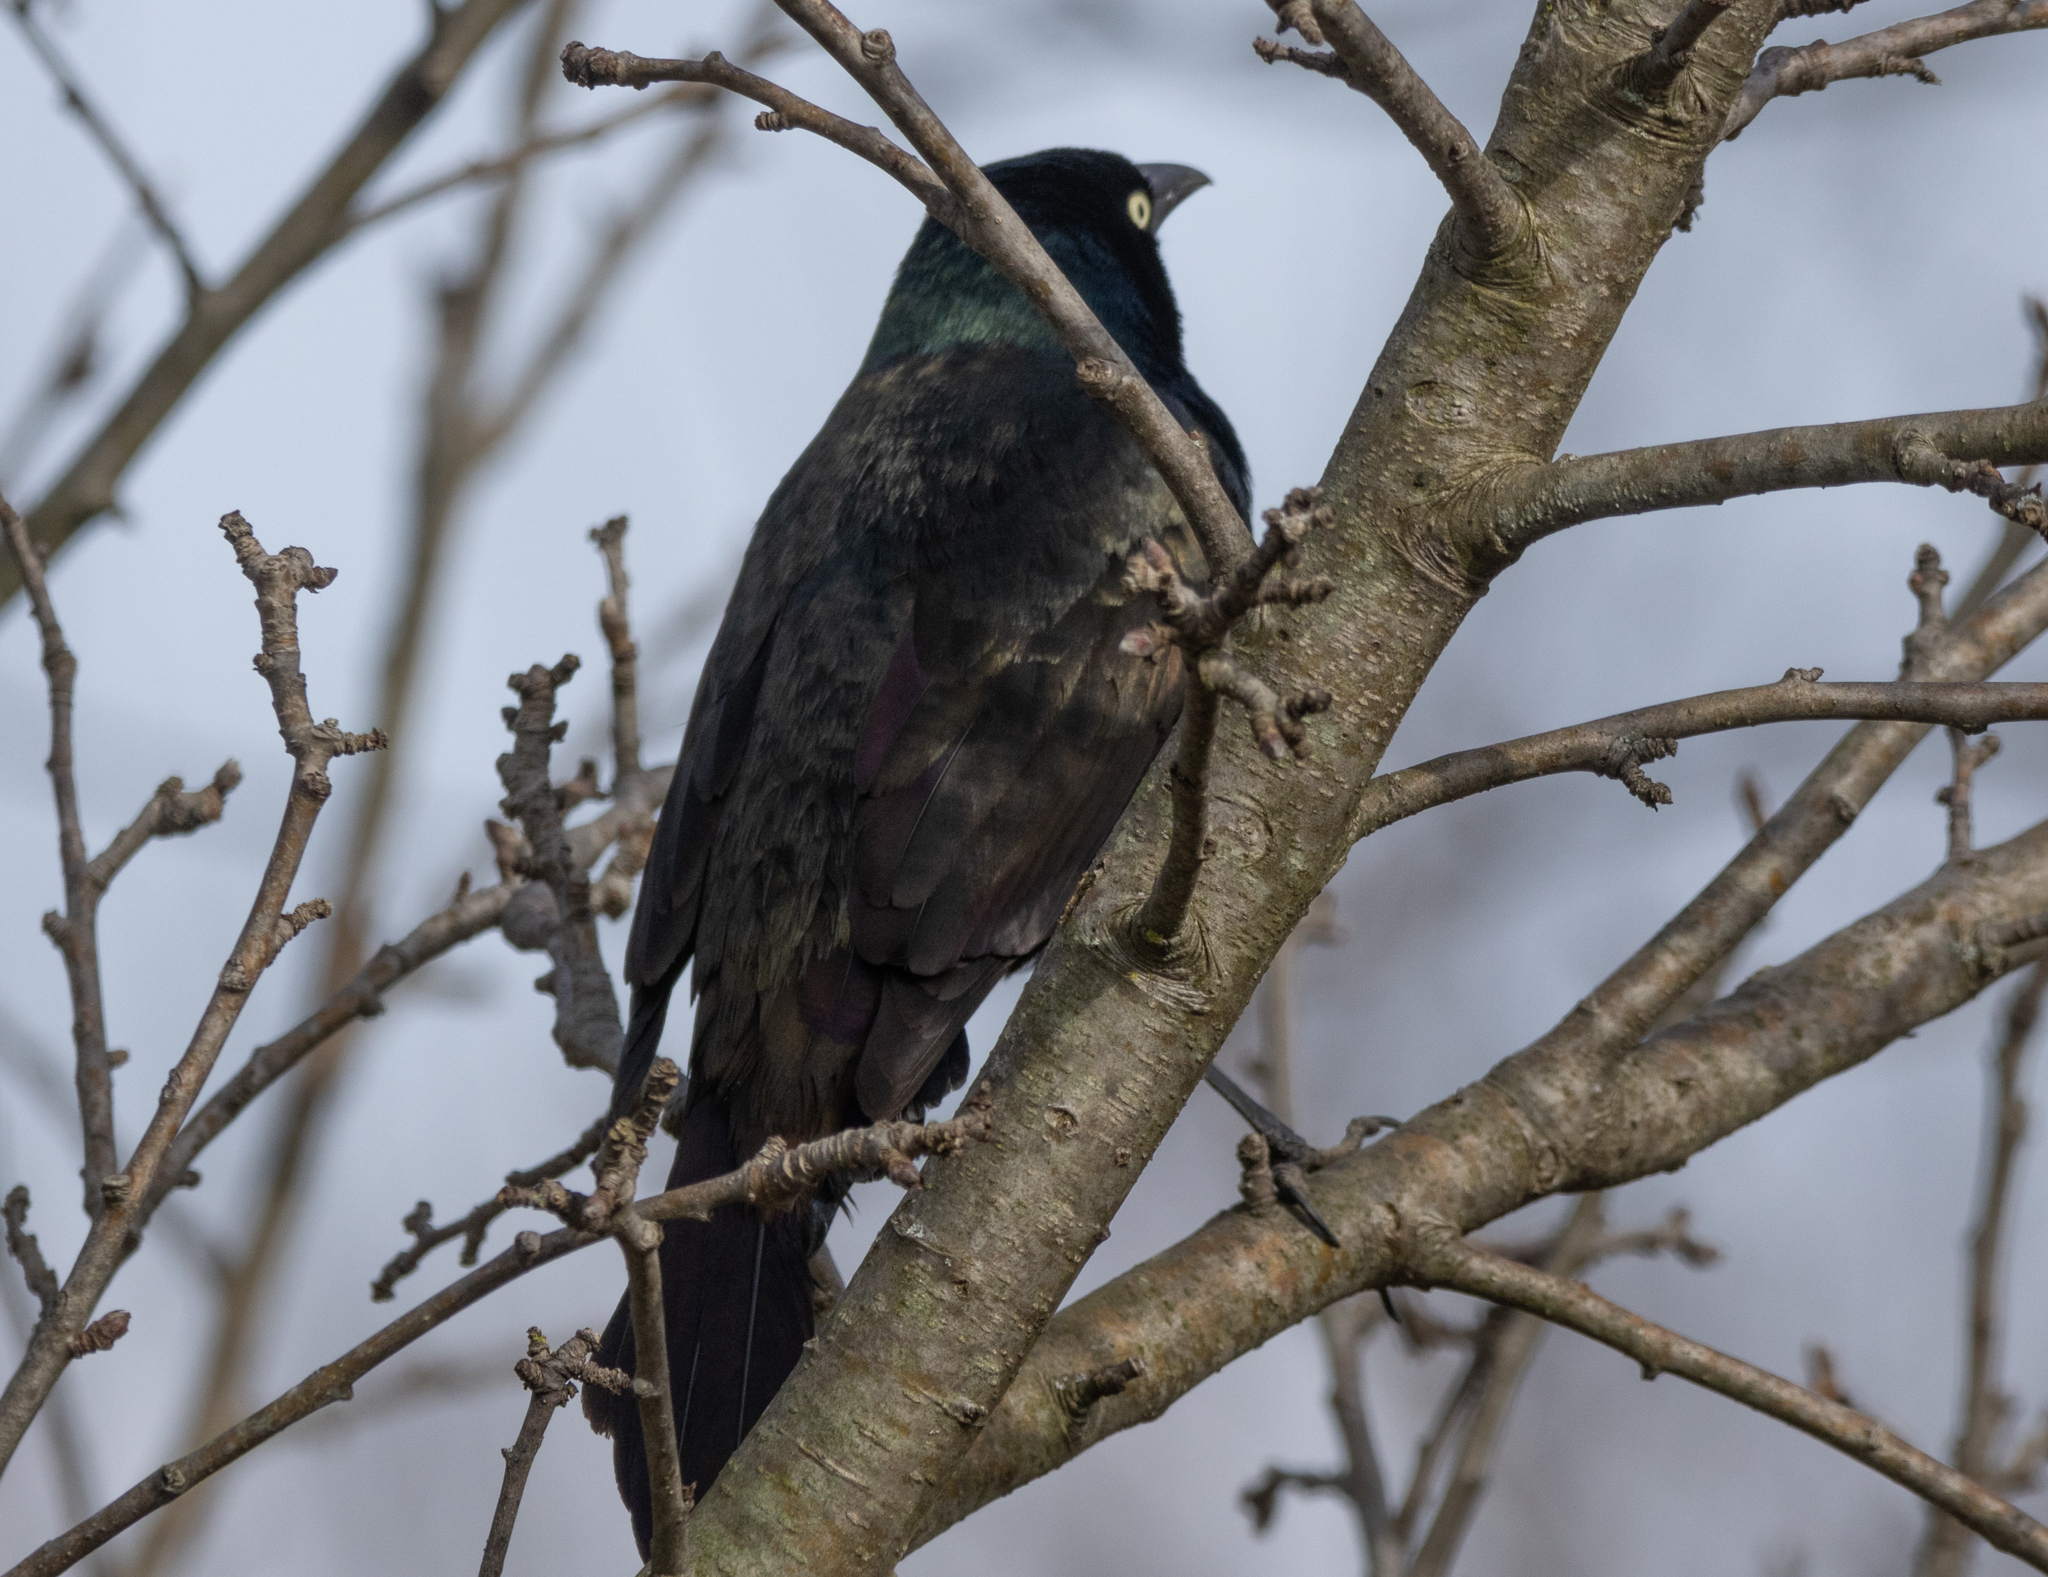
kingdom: Animalia
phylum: Chordata
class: Aves
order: Passeriformes
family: Icteridae
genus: Quiscalus
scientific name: Quiscalus quiscula
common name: Common grackle
